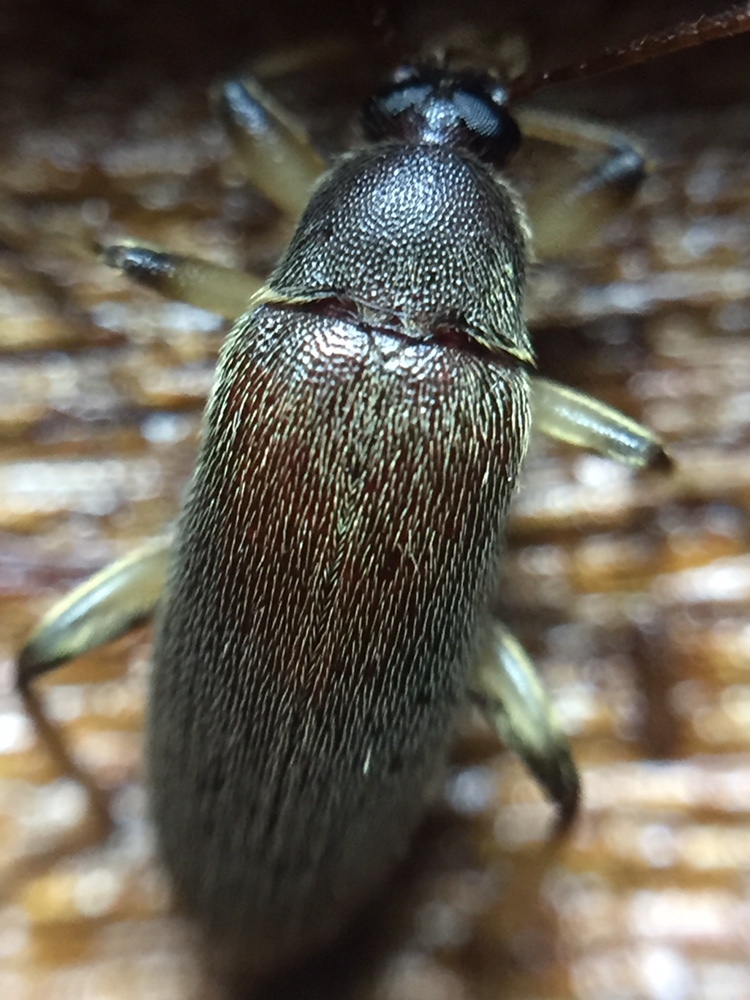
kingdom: Animalia
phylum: Arthropoda
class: Insecta
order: Coleoptera
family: Tenebrionidae
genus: Homotrysis
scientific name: Homotrysis
